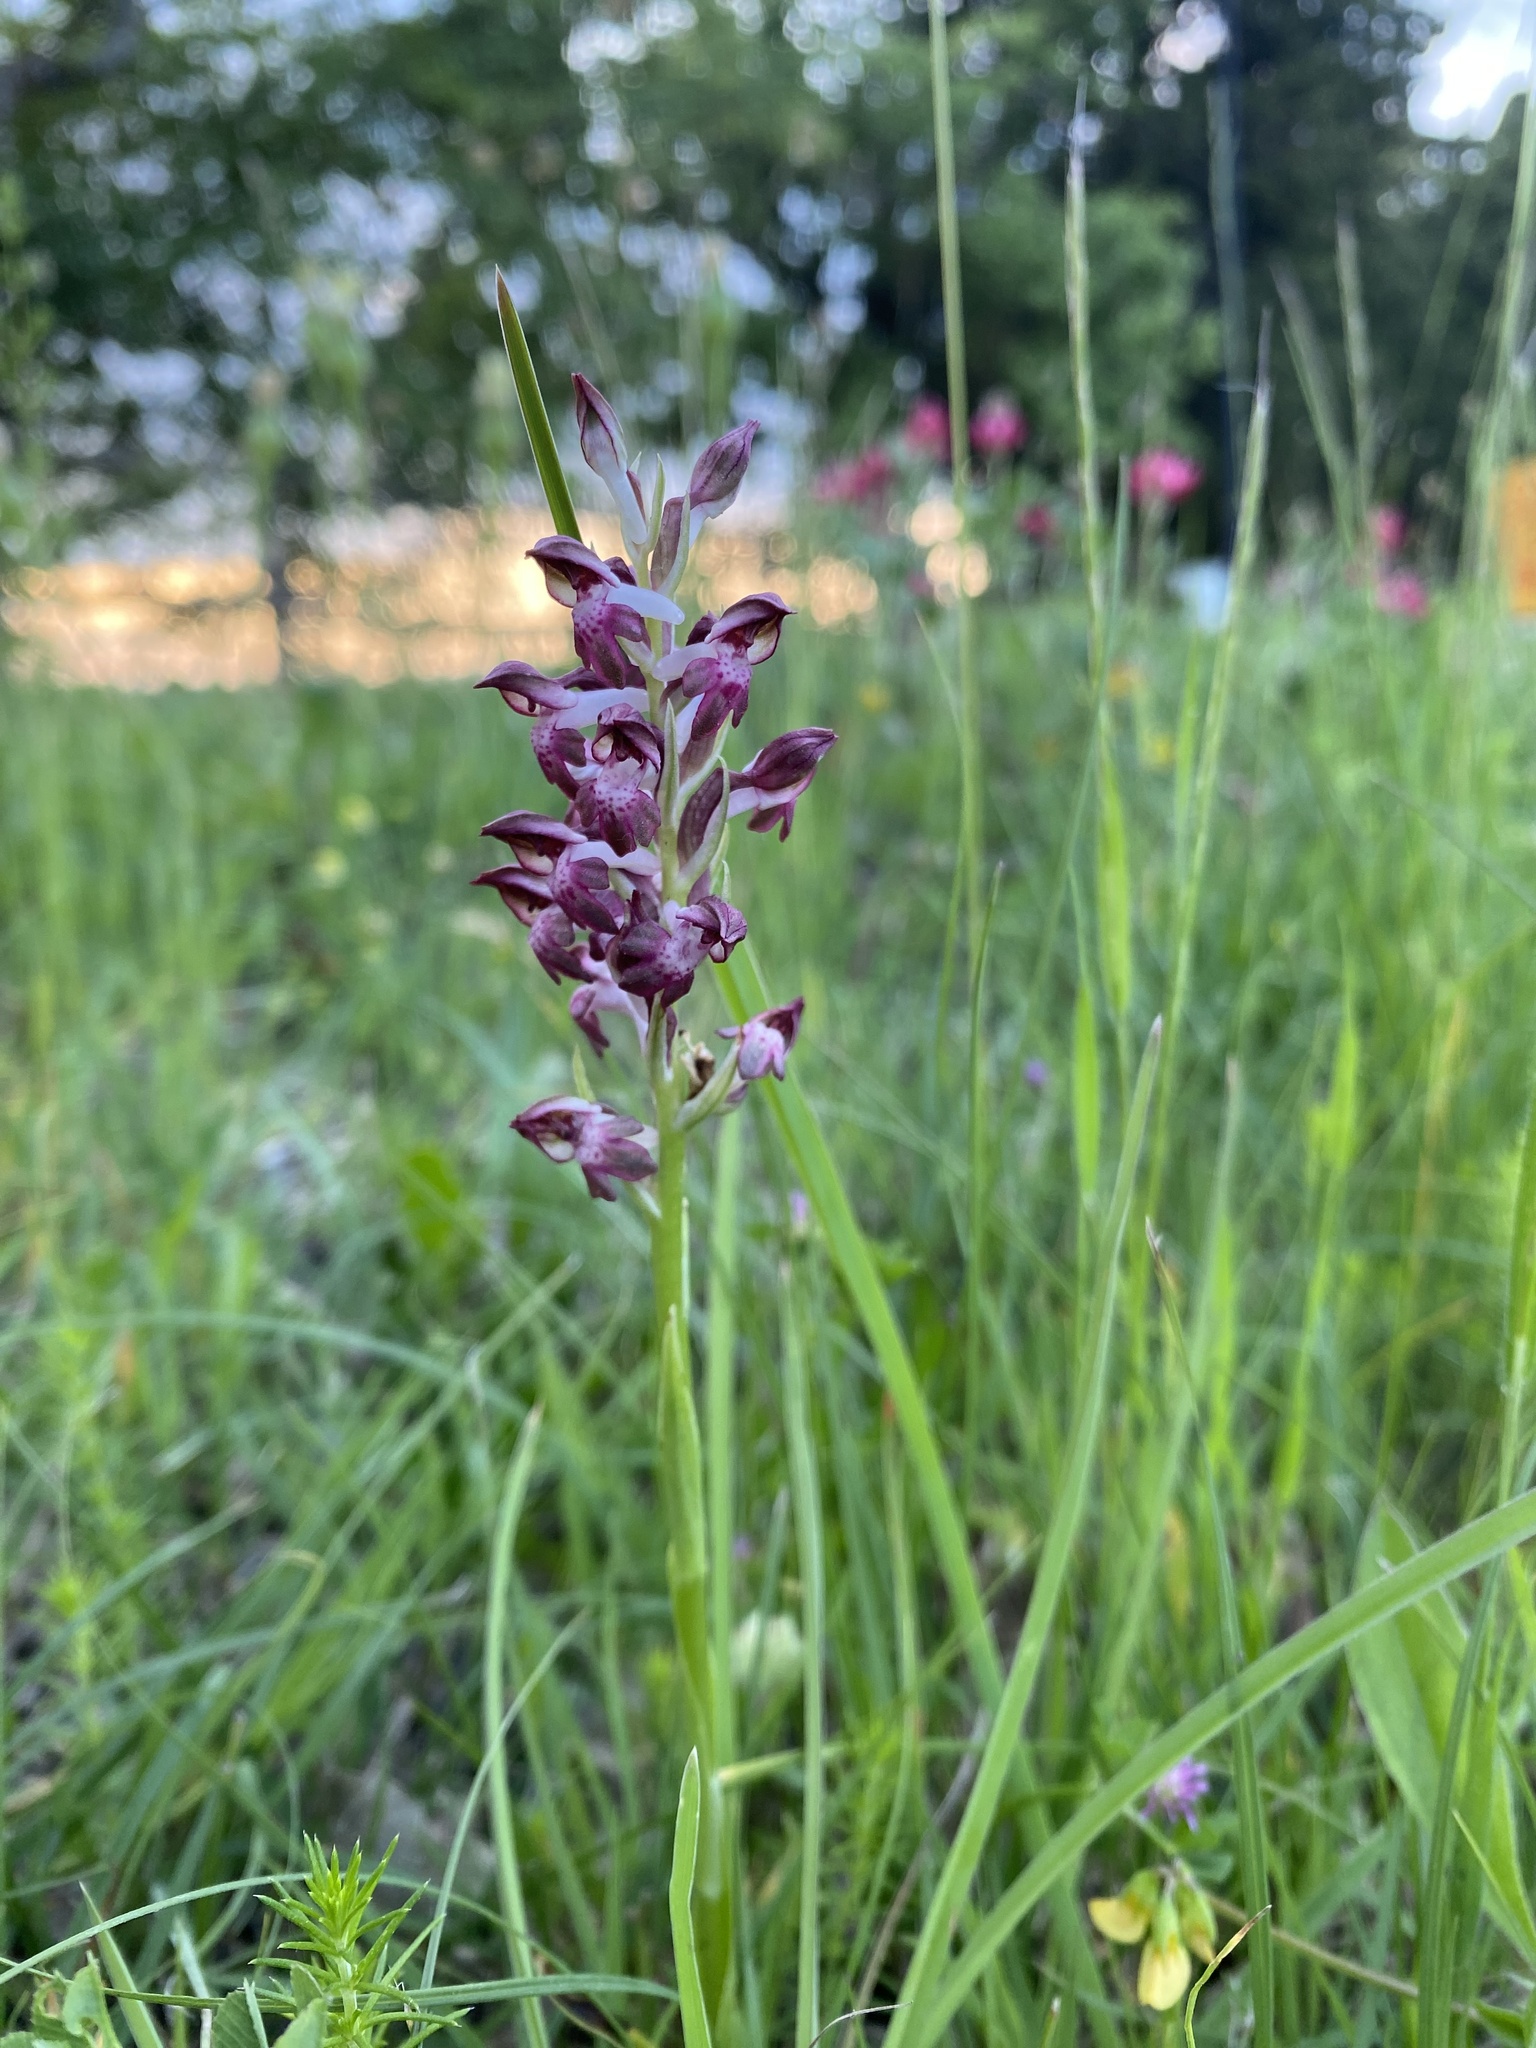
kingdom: Plantae
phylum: Tracheophyta
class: Liliopsida
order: Asparagales
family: Orchidaceae
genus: Anacamptis
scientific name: Anacamptis coriophora
